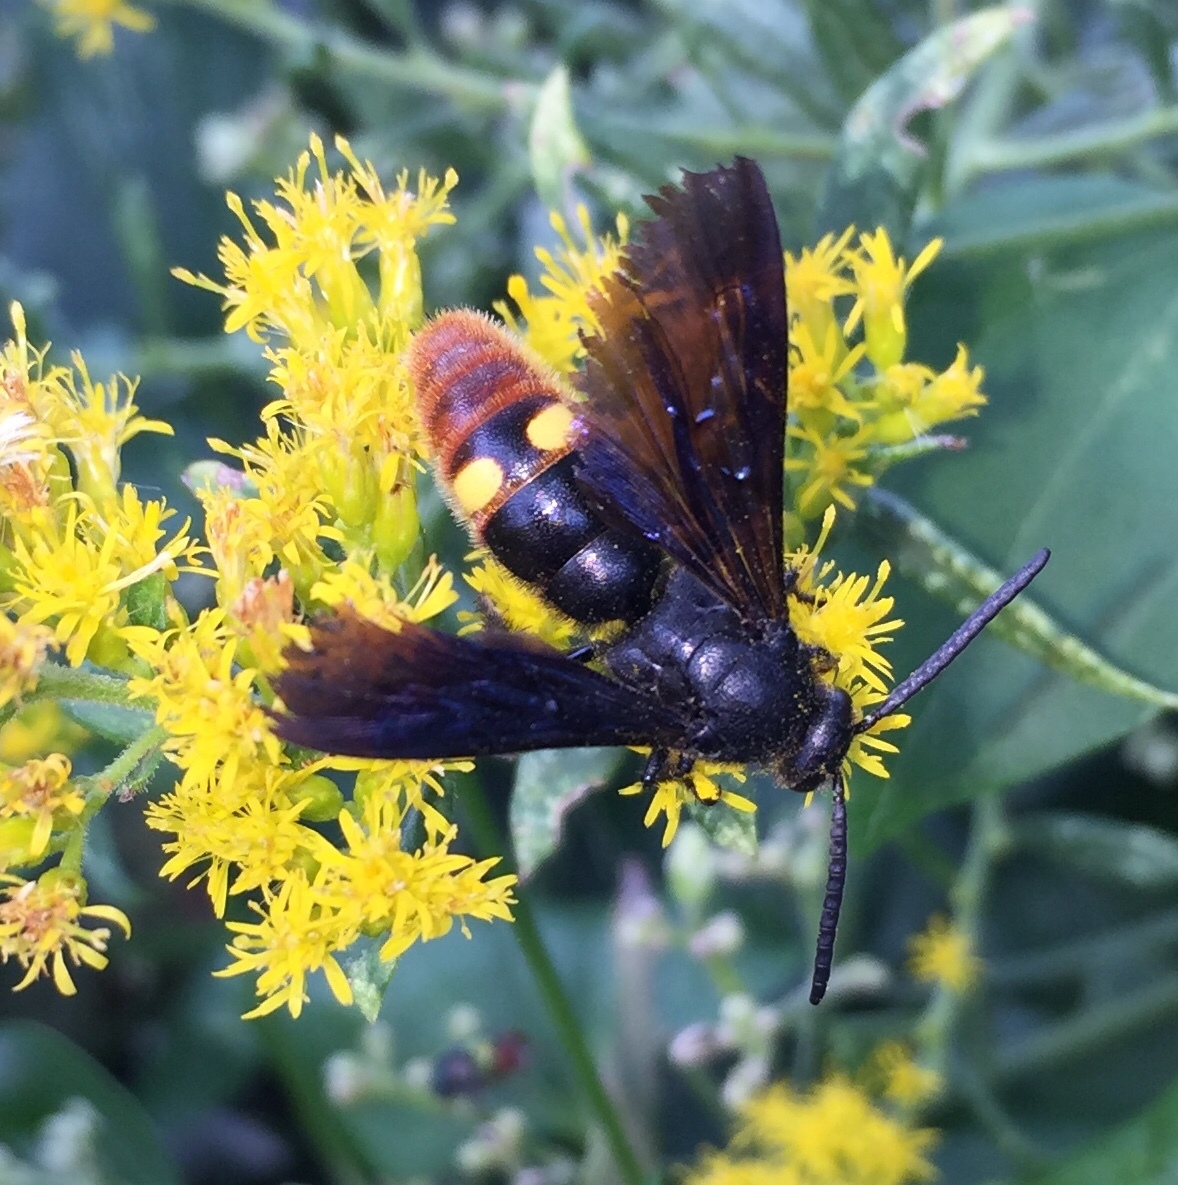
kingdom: Animalia
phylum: Arthropoda
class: Insecta
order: Hymenoptera
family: Scoliidae
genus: Scolia
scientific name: Scolia dubia
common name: Blue-winged scoliid wasp
